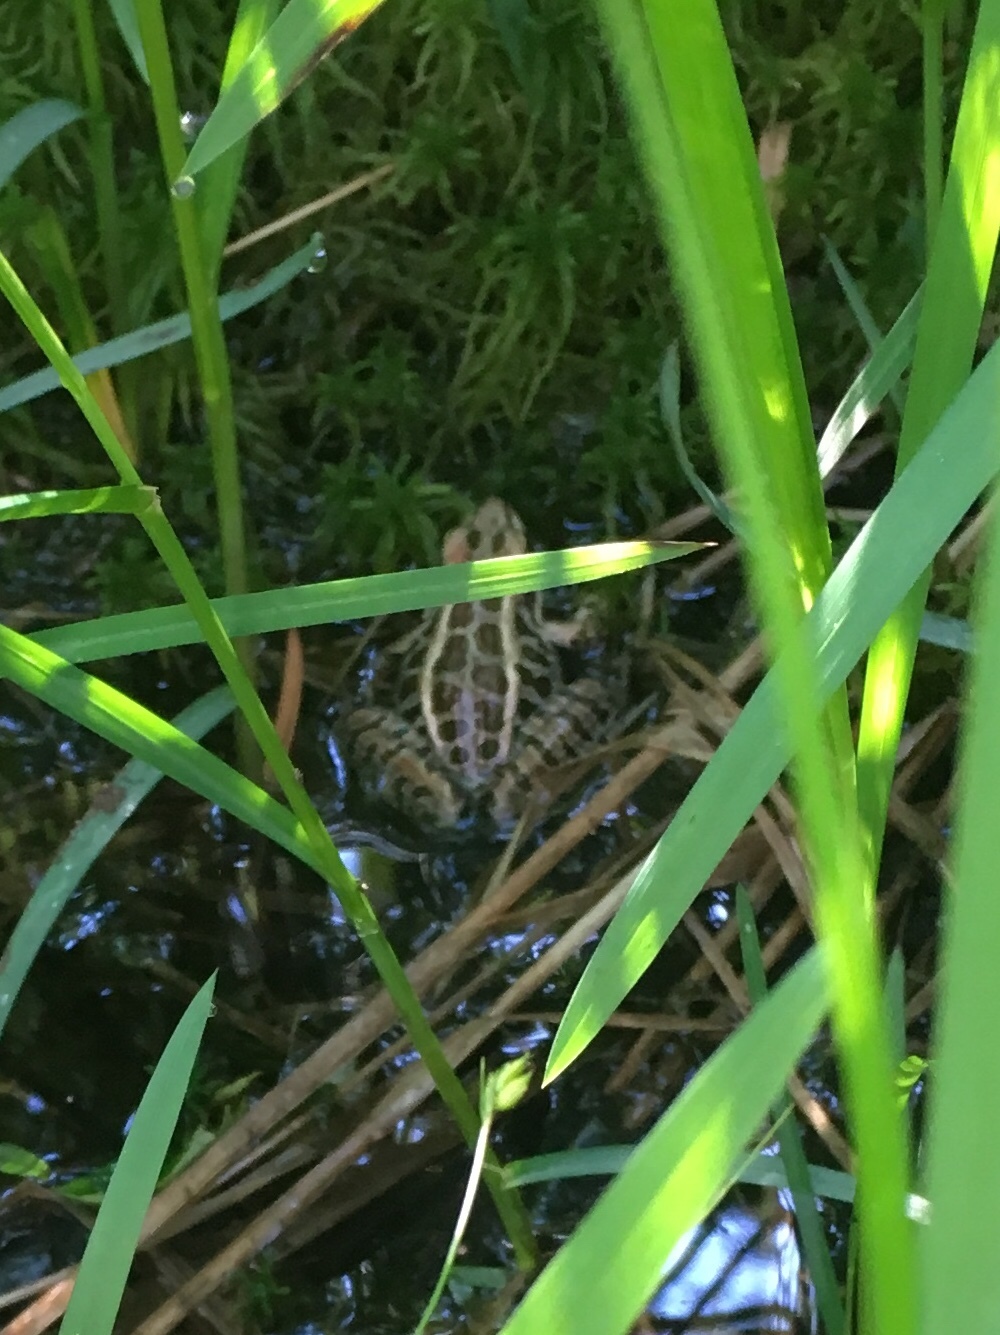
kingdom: Animalia
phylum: Chordata
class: Amphibia
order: Anura
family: Ranidae
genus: Lithobates
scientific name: Lithobates palustris
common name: Pickerel frog
